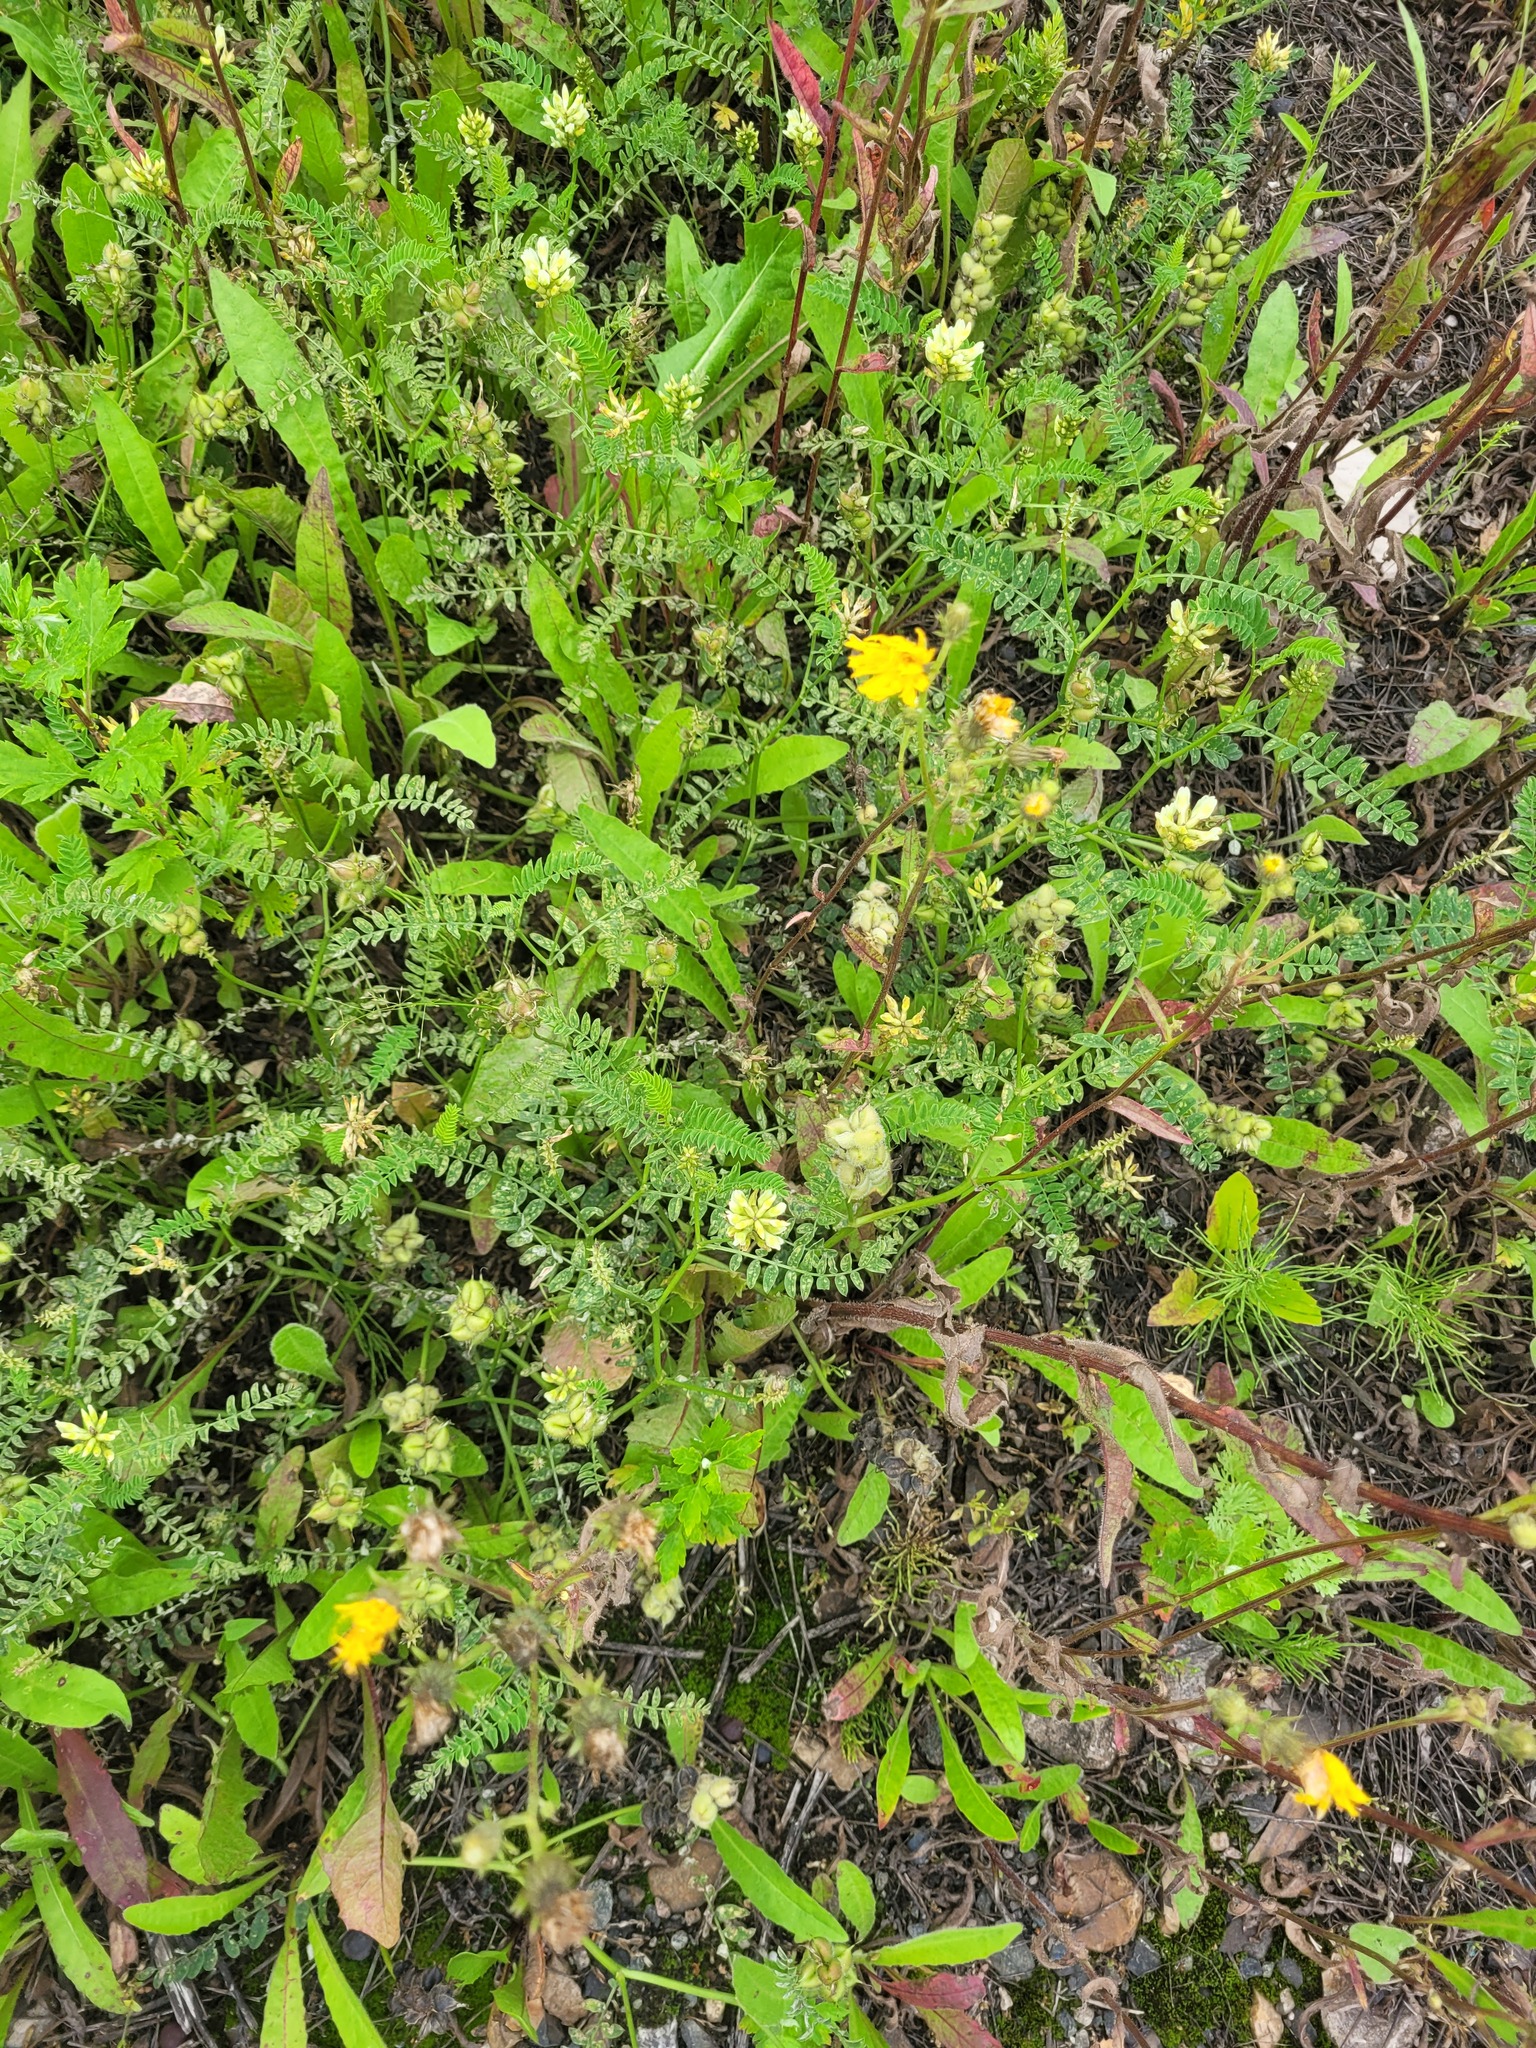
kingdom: Plantae
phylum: Tracheophyta
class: Magnoliopsida
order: Fabales
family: Fabaceae
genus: Astragalus
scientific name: Astragalus cicer
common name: Chick-pea milk-vetch
